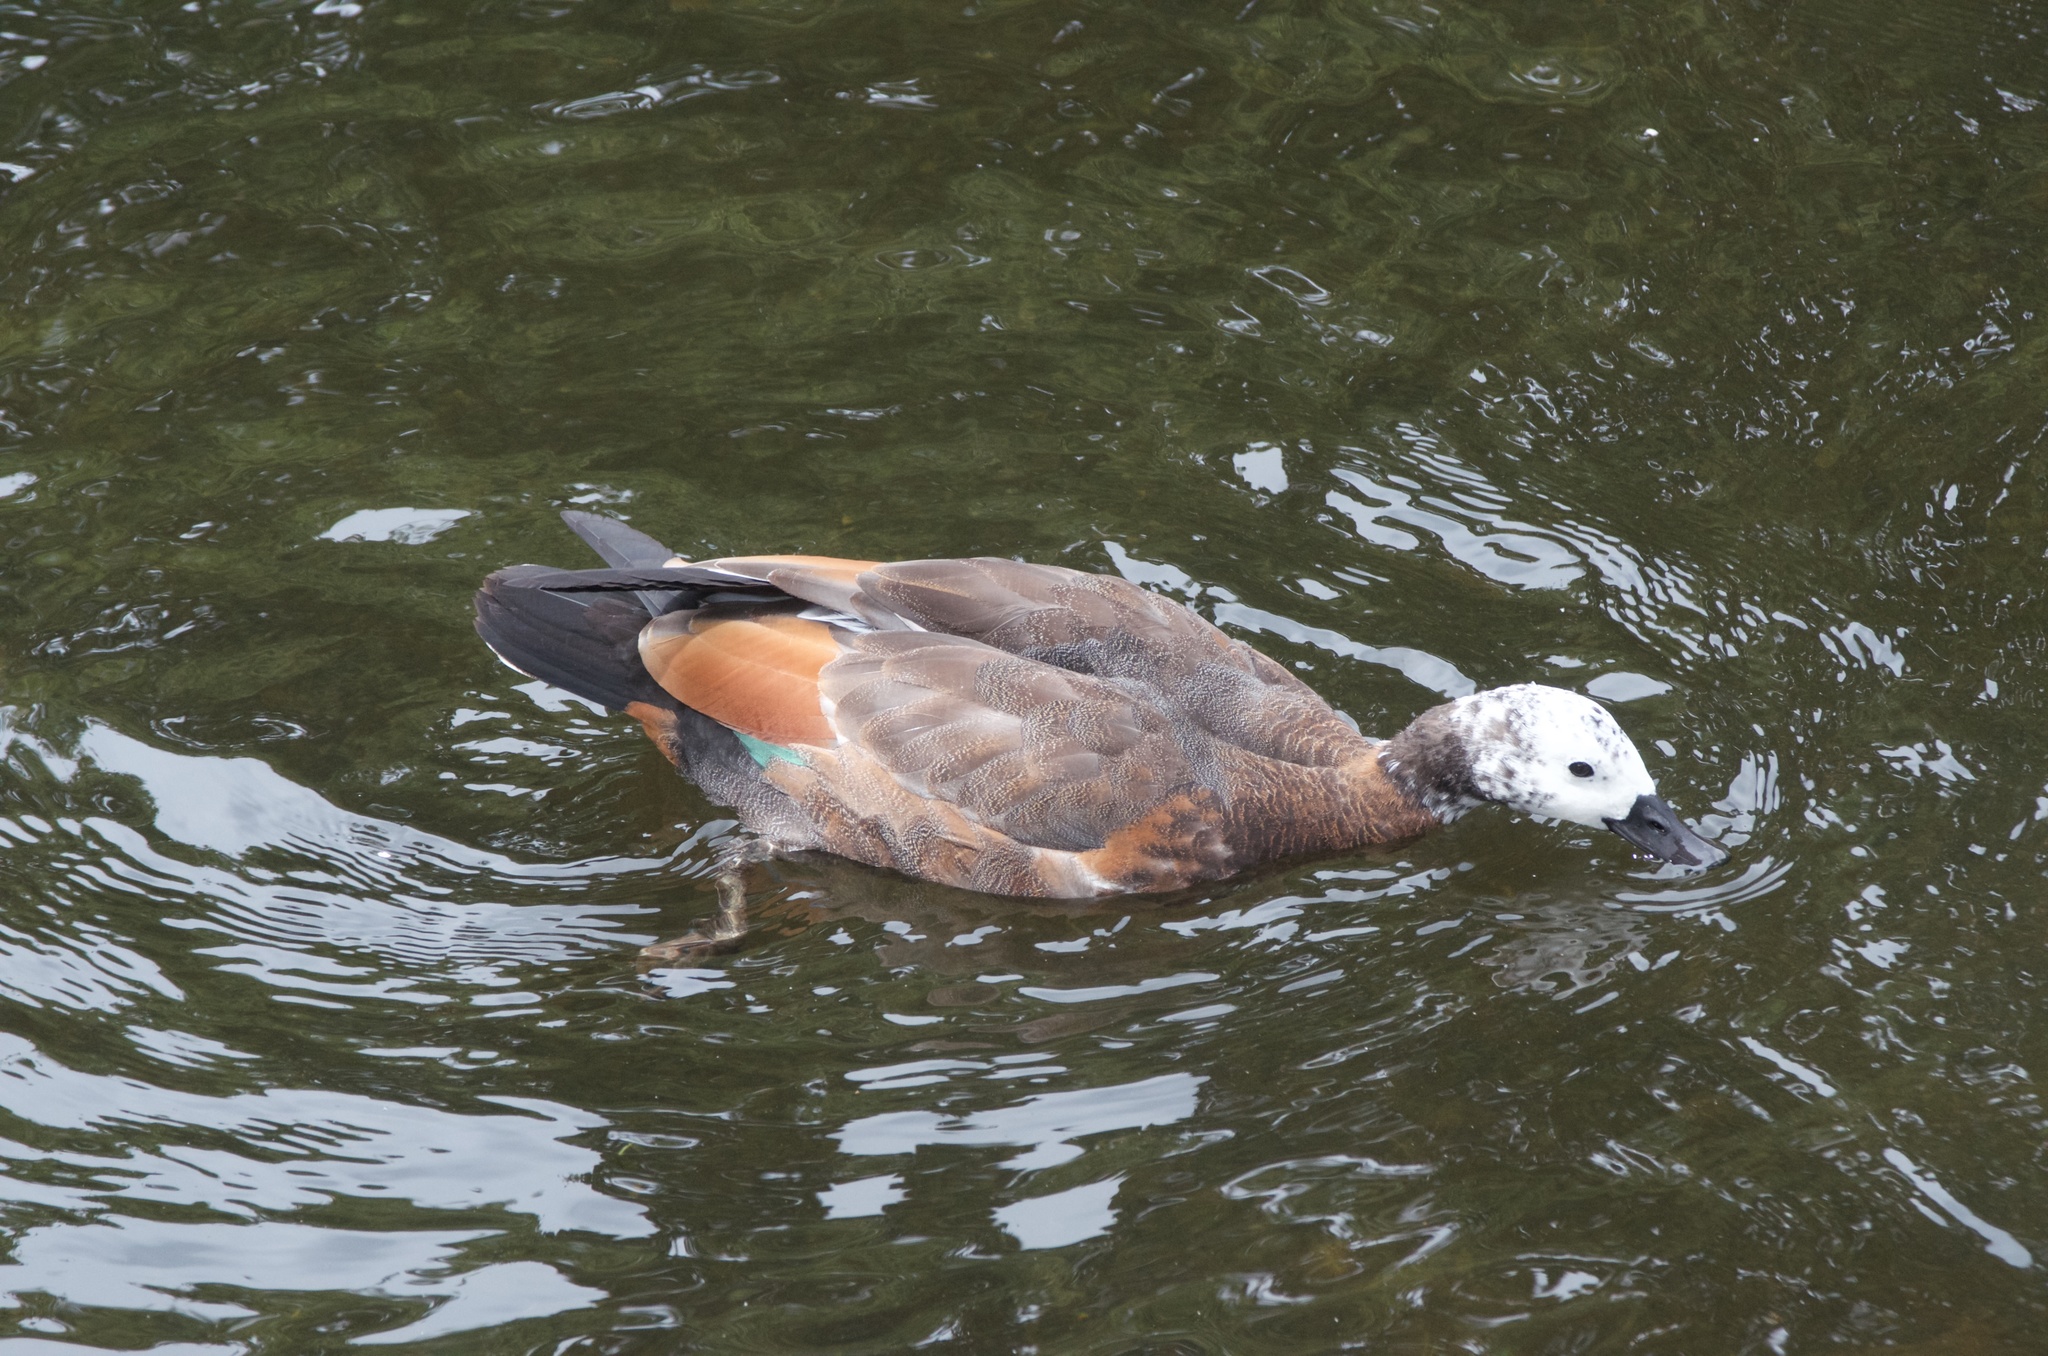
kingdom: Animalia
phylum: Chordata
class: Aves
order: Anseriformes
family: Anatidae
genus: Tadorna
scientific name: Tadorna variegata
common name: Paradise shelduck
